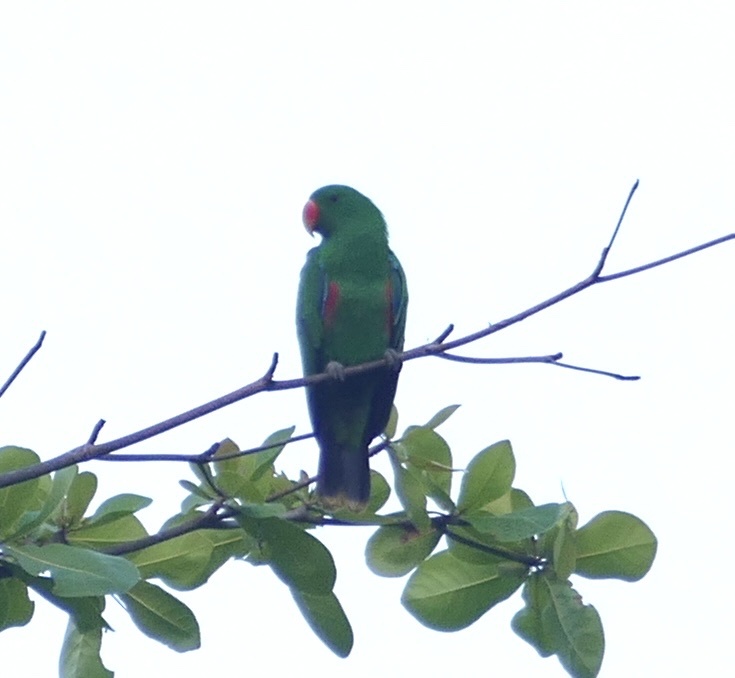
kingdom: Animalia
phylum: Chordata
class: Aves
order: Psittaciformes
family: Psittacidae
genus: Eclectus
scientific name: Eclectus roratus
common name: Eclectus parrot
